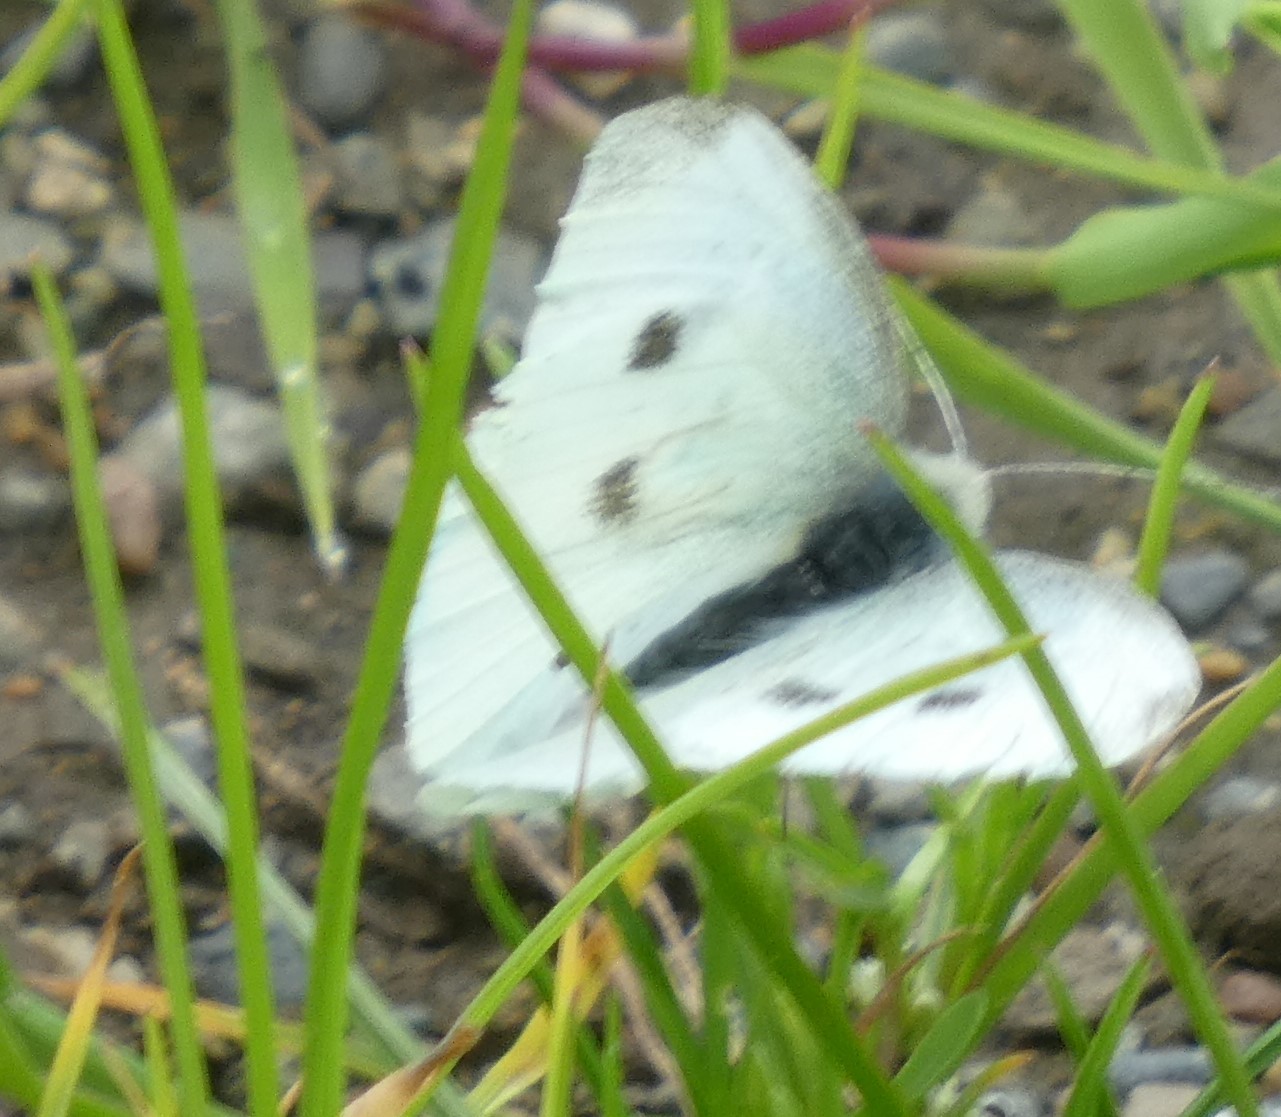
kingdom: Animalia
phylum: Arthropoda
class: Insecta
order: Lepidoptera
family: Pieridae
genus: Pieris
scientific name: Pieris rapae
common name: Small white
